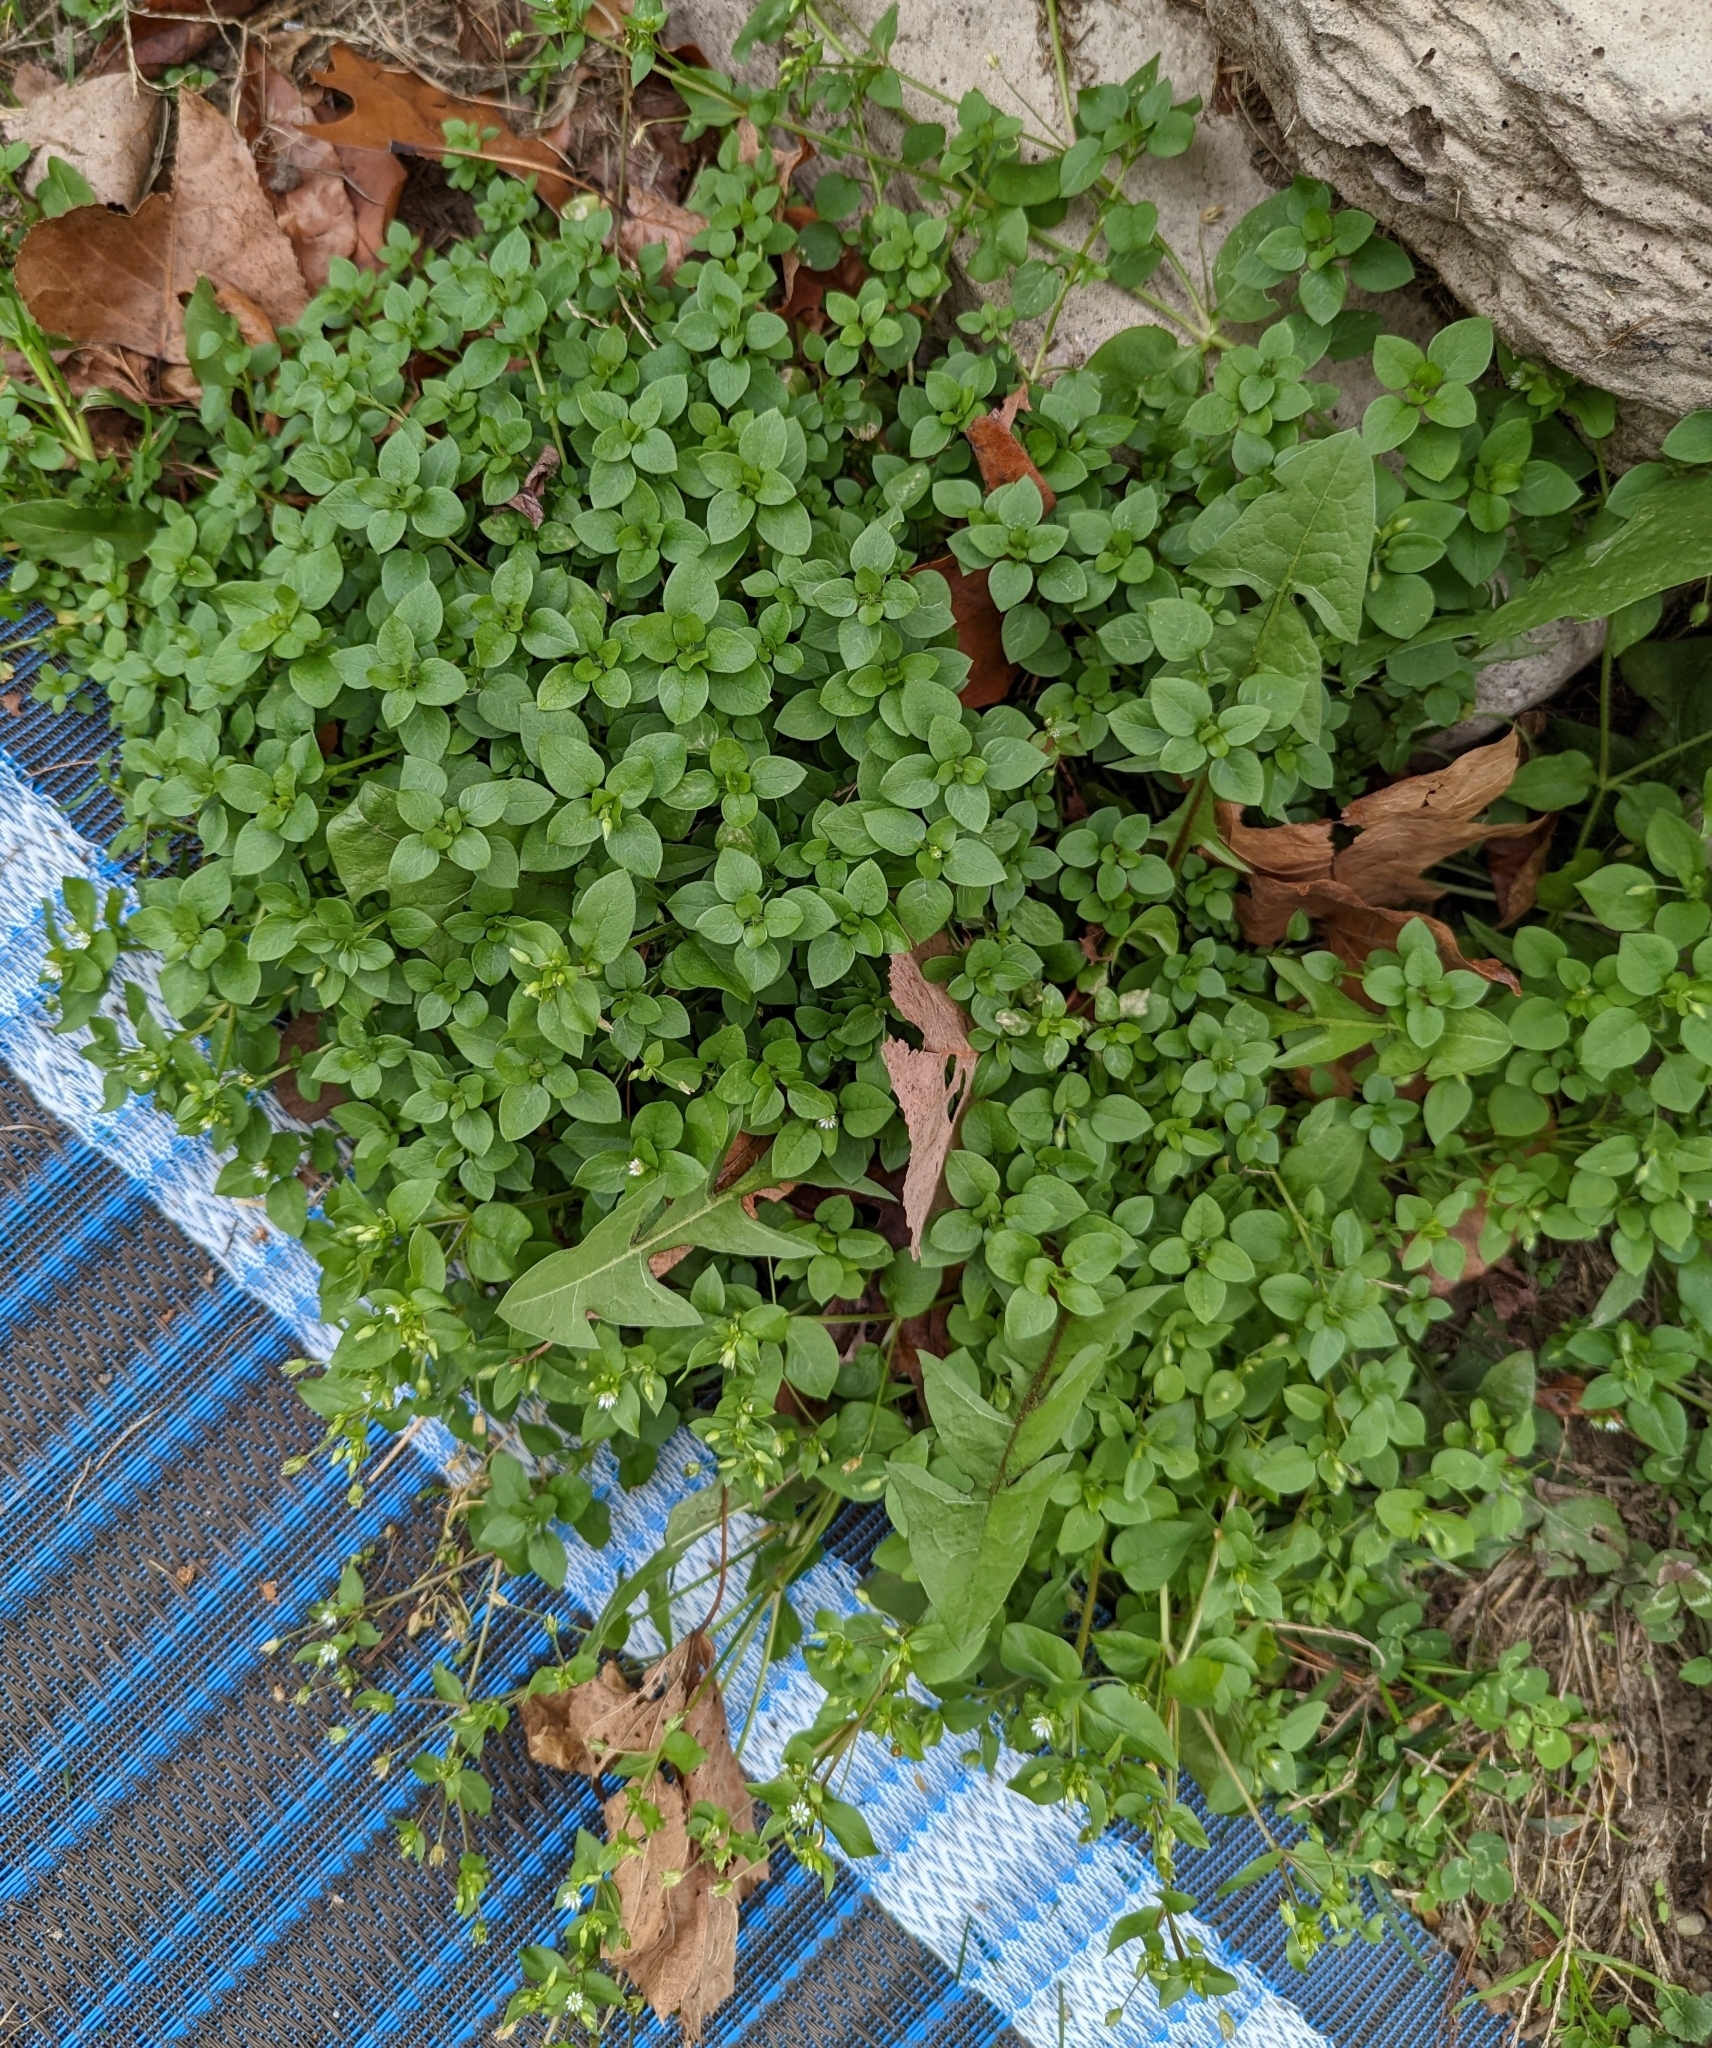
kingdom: Plantae
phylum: Tracheophyta
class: Magnoliopsida
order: Caryophyllales
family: Caryophyllaceae
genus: Stellaria
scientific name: Stellaria media
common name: Common chickweed
